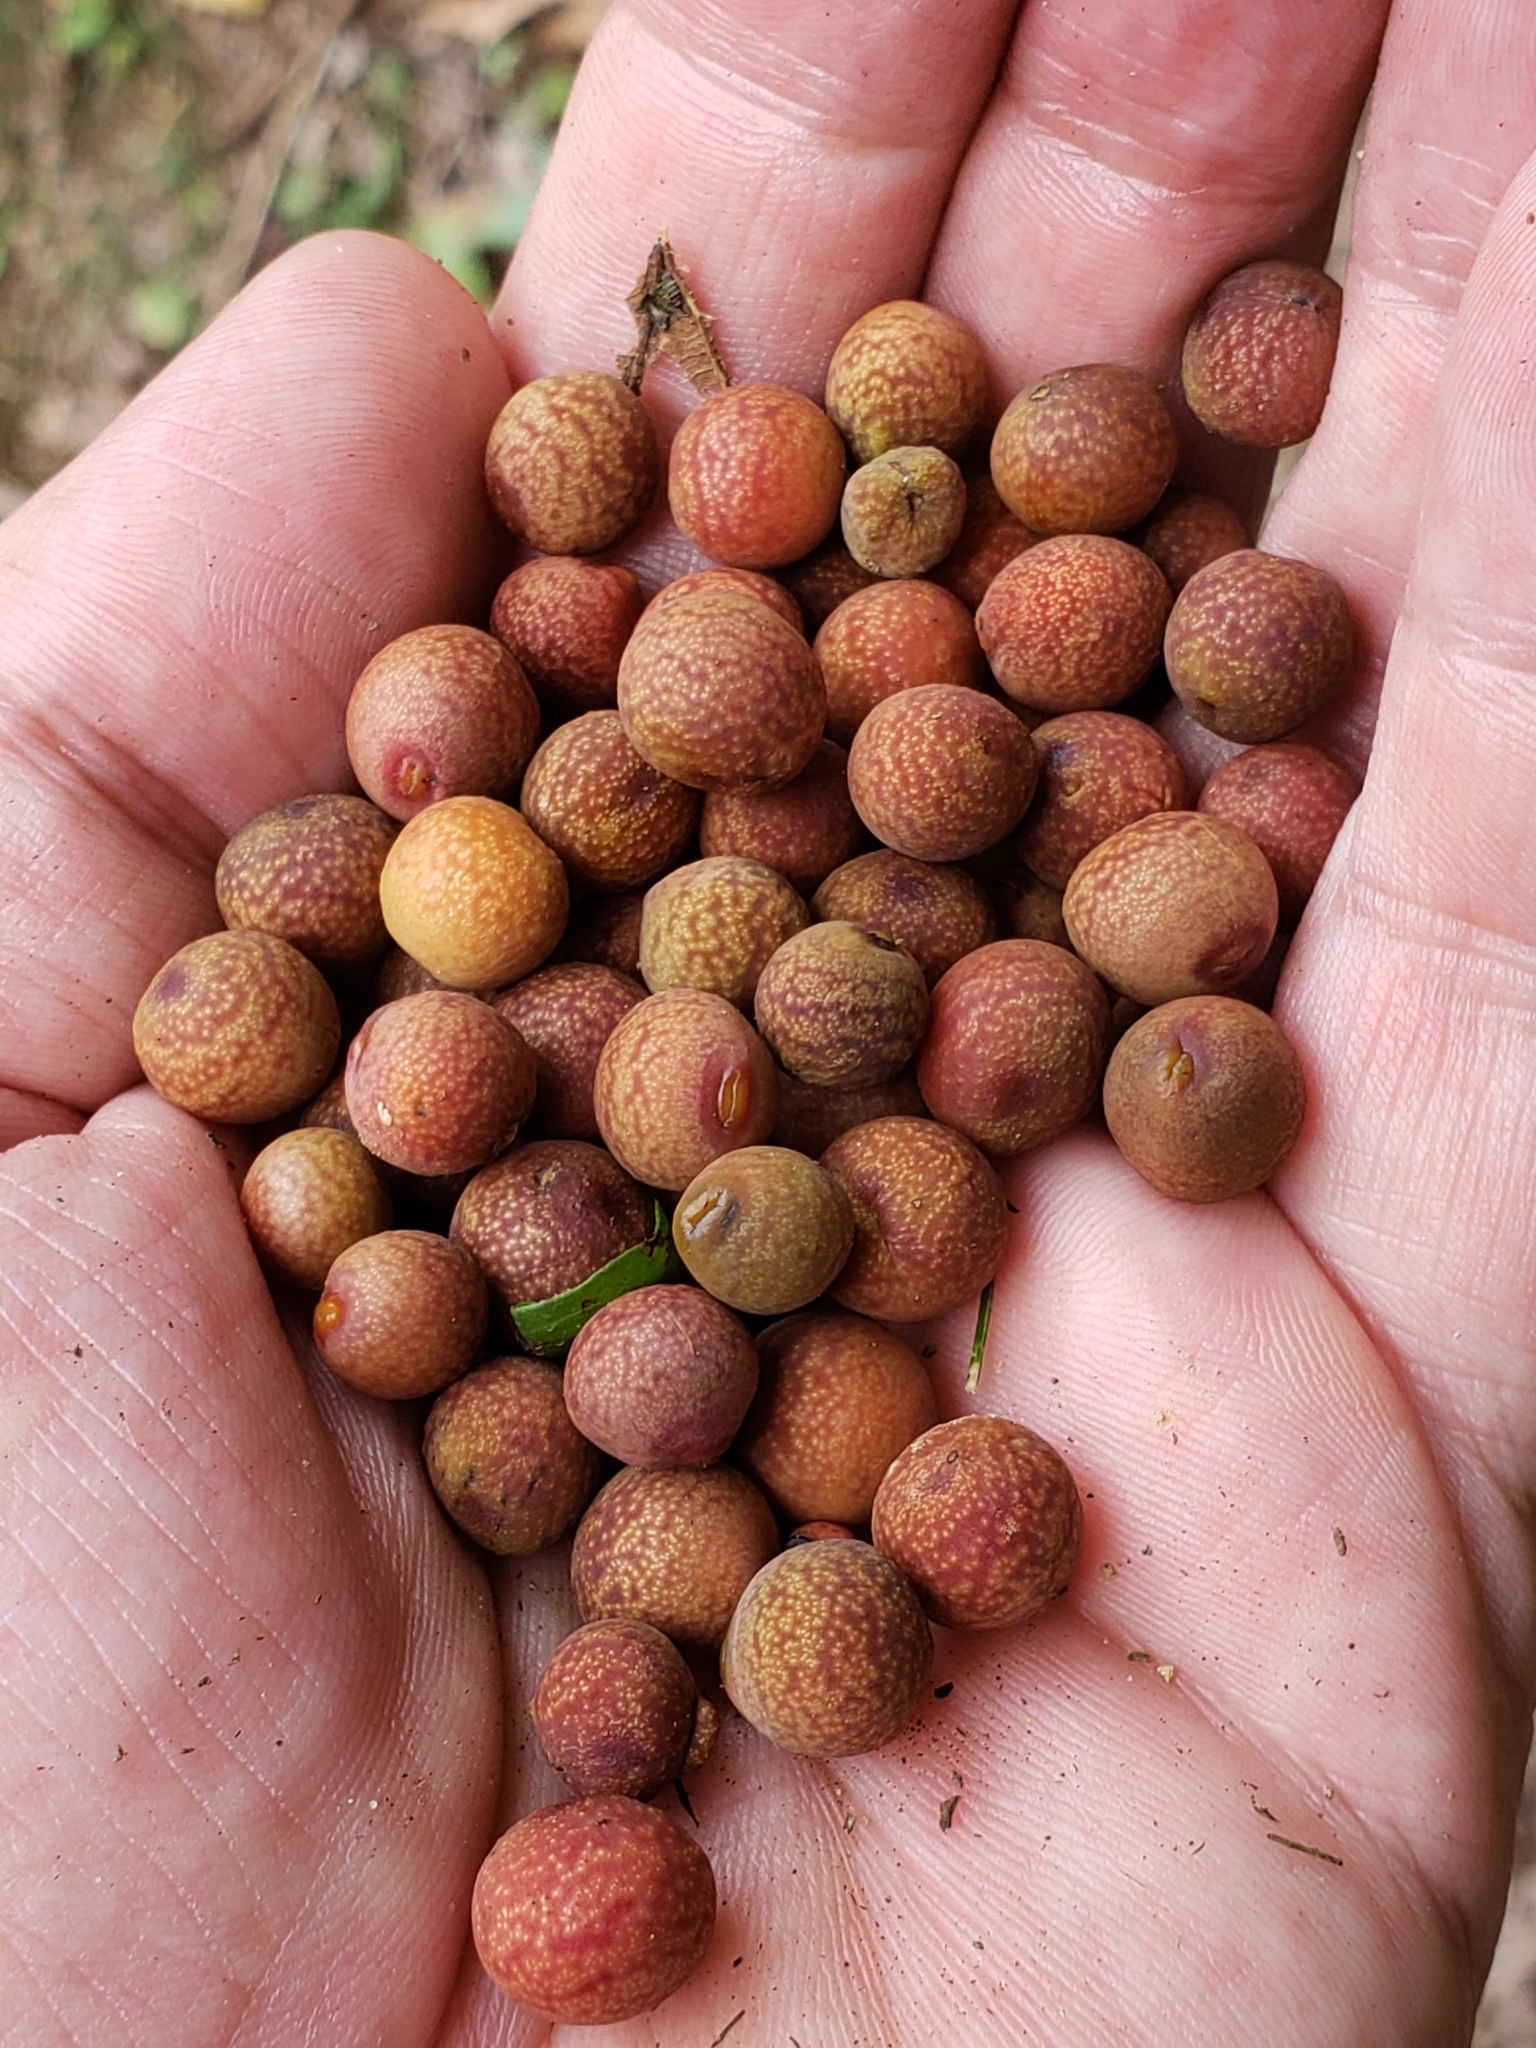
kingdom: Animalia
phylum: Arthropoda
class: Insecta
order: Hymenoptera
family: Cynipidae
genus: Kokkocynips
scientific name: Kokkocynips imbricariae
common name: Banded bullet gall wasp
